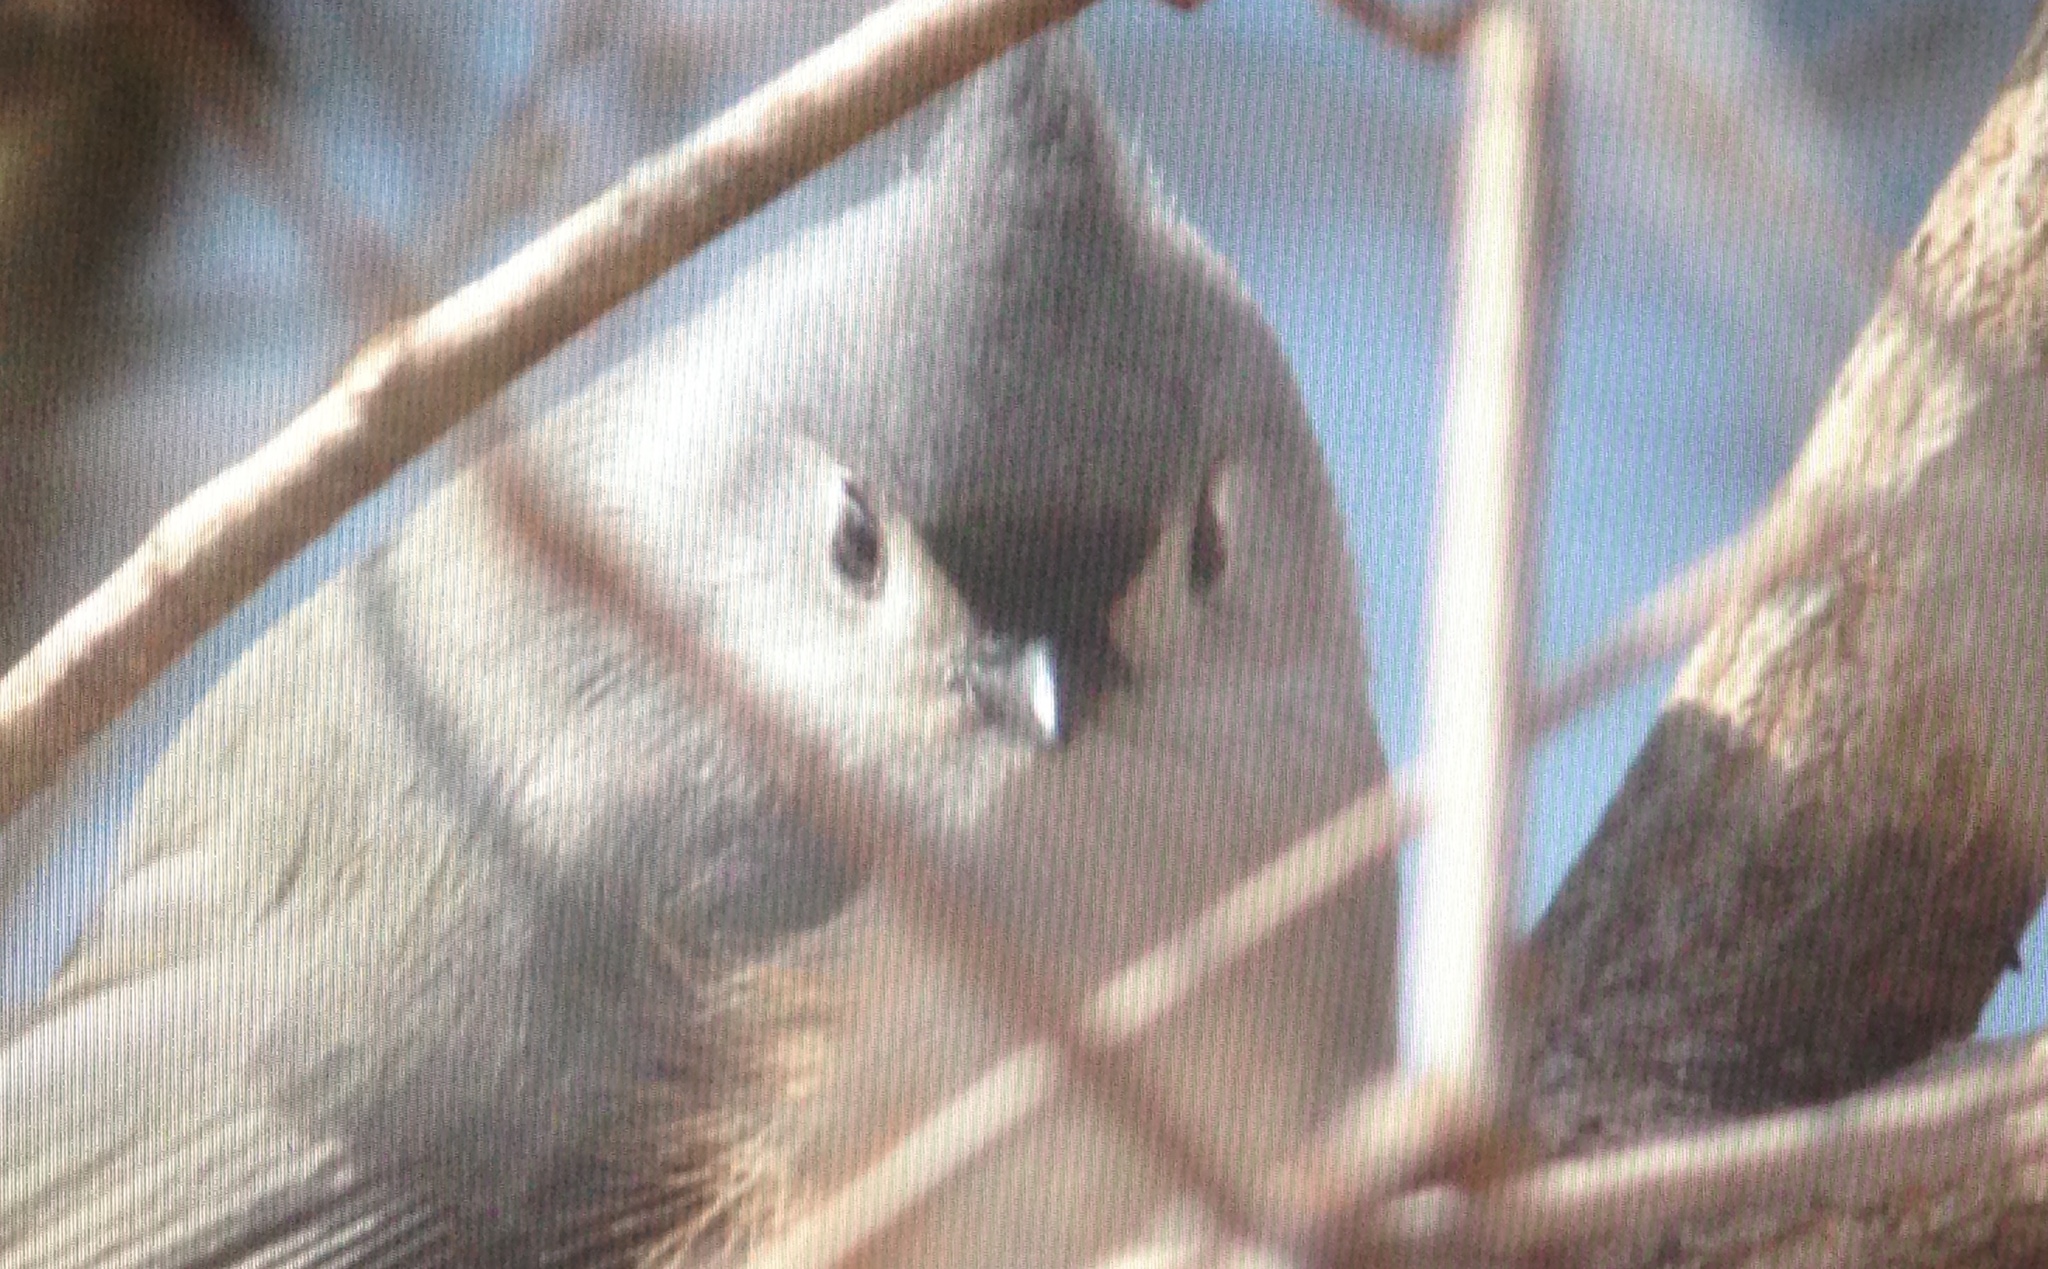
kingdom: Animalia
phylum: Chordata
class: Aves
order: Passeriformes
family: Paridae
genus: Baeolophus
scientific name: Baeolophus bicolor
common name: Tufted titmouse
